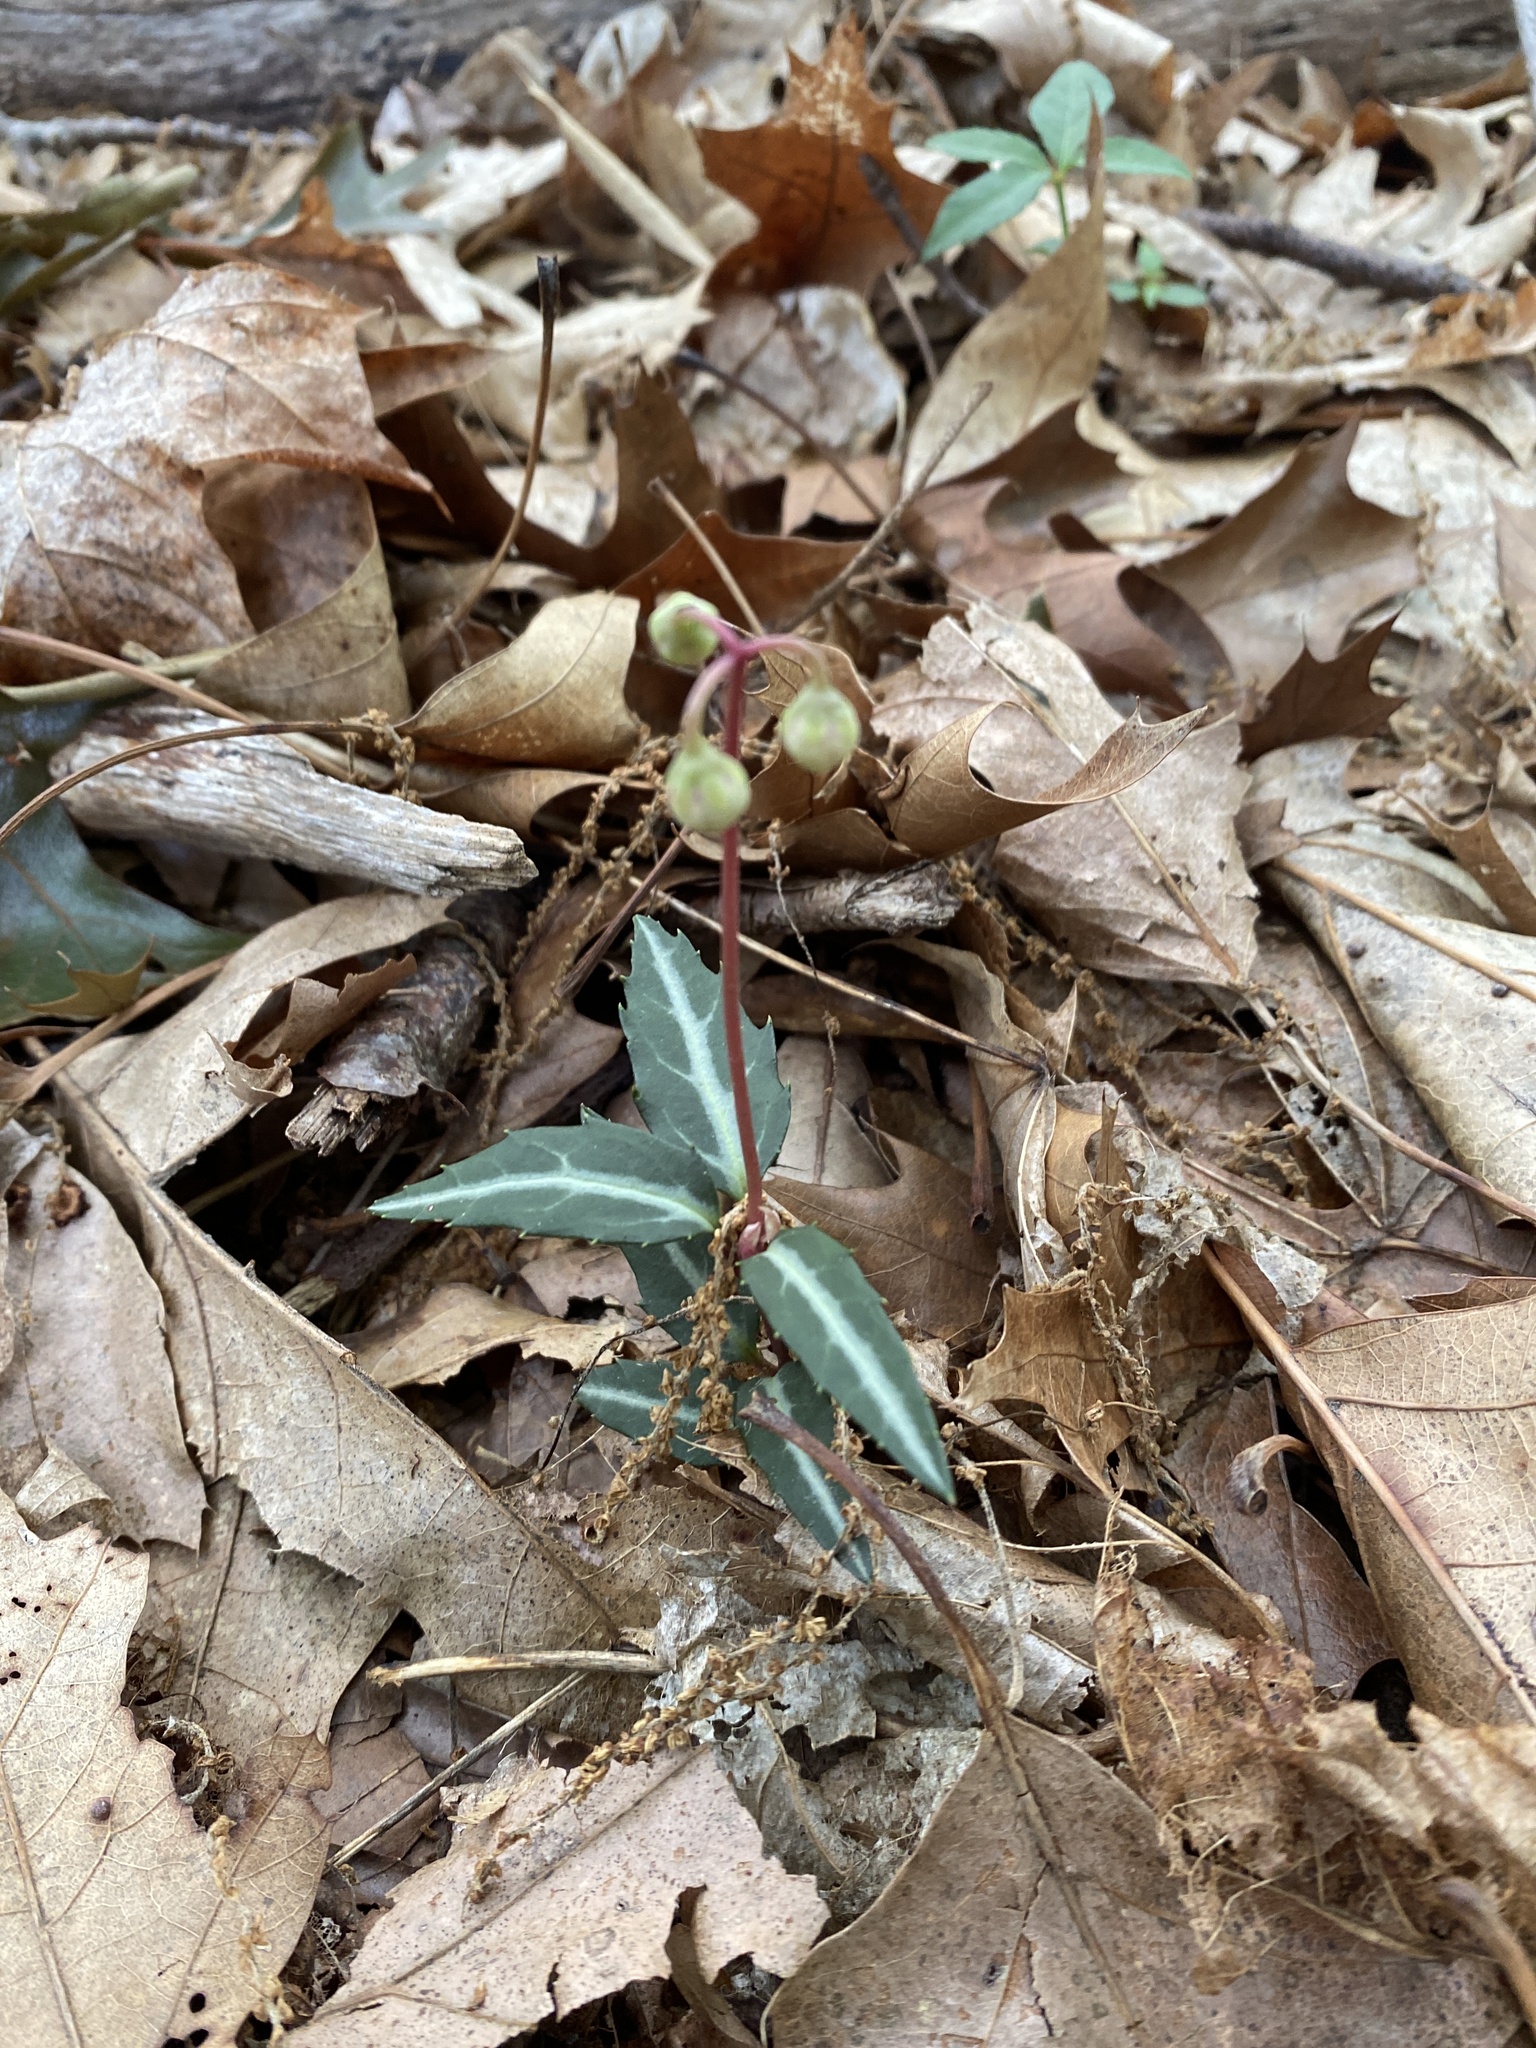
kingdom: Plantae
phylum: Tracheophyta
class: Magnoliopsida
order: Ericales
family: Ericaceae
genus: Chimaphila
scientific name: Chimaphila maculata
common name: Spotted pipsissewa
